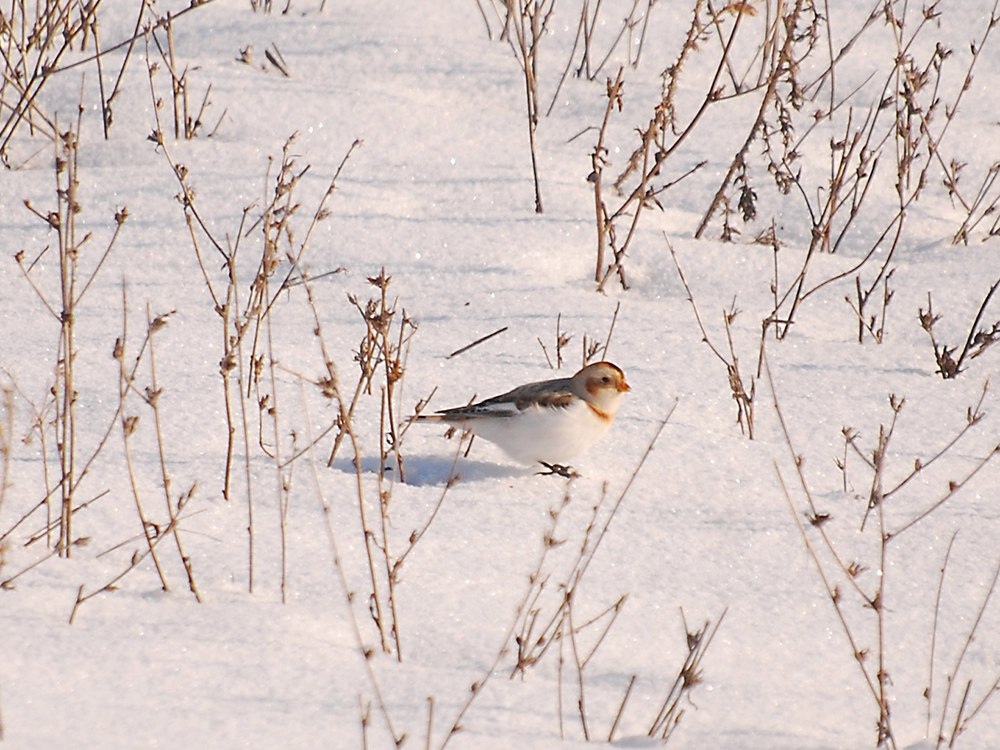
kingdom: Animalia
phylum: Chordata
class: Aves
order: Passeriformes
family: Calcariidae
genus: Plectrophenax
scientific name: Plectrophenax nivalis
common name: Snow bunting
